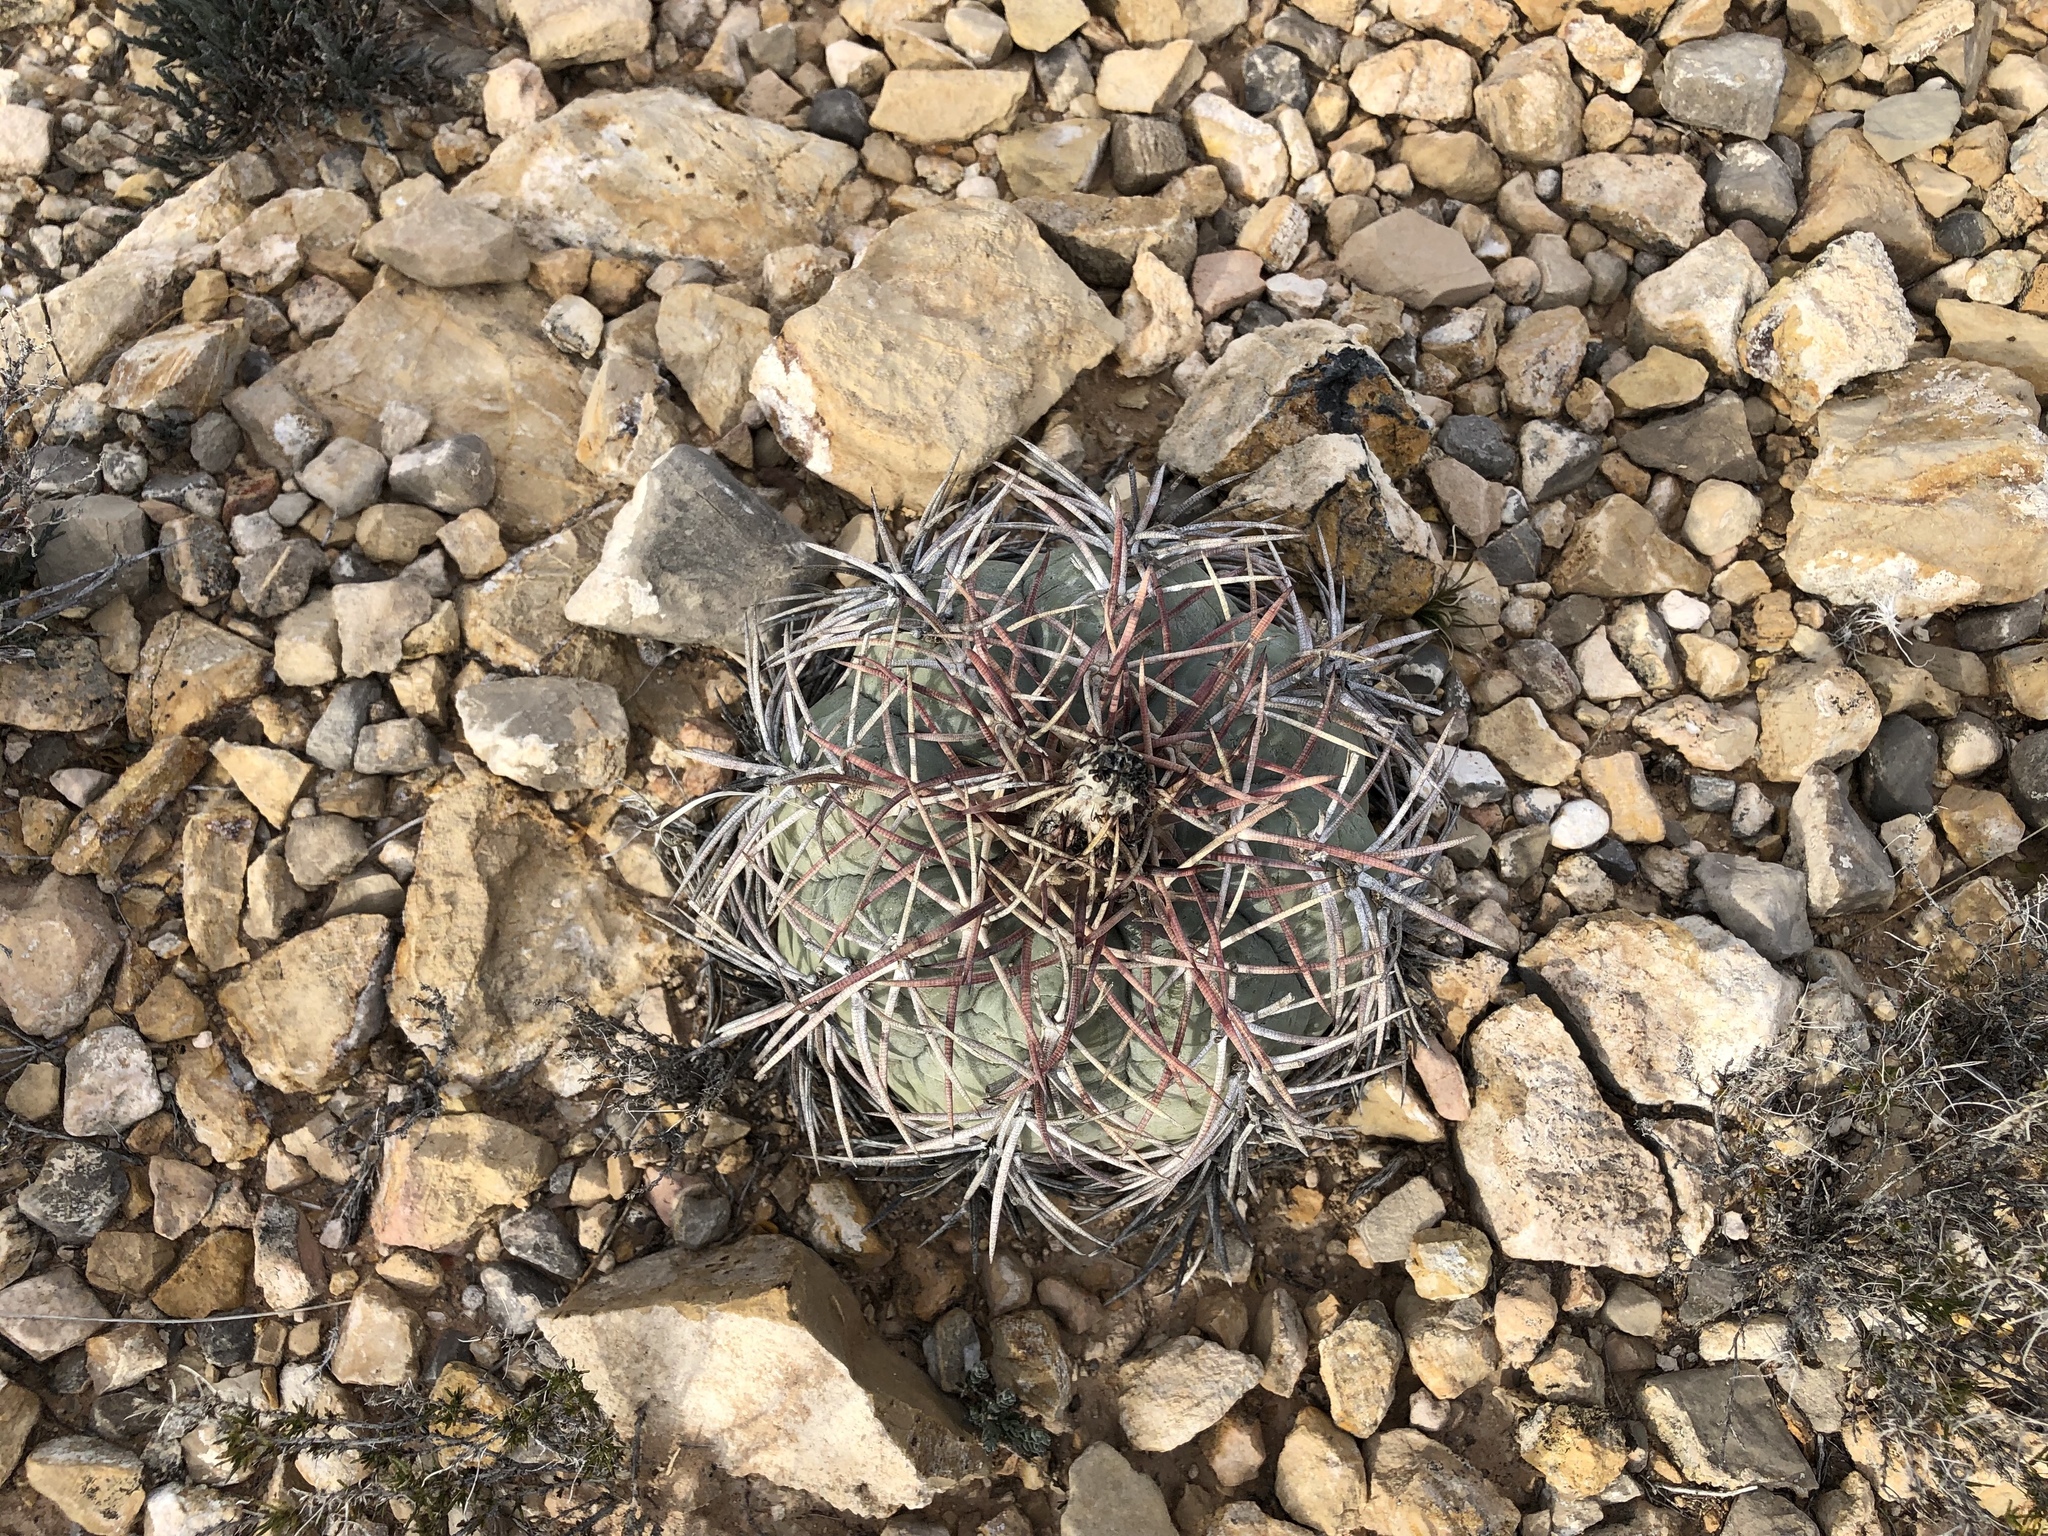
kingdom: Plantae
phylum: Tracheophyta
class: Magnoliopsida
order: Caryophyllales
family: Cactaceae
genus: Echinocactus
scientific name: Echinocactus horizonthalonius
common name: Devilshead
